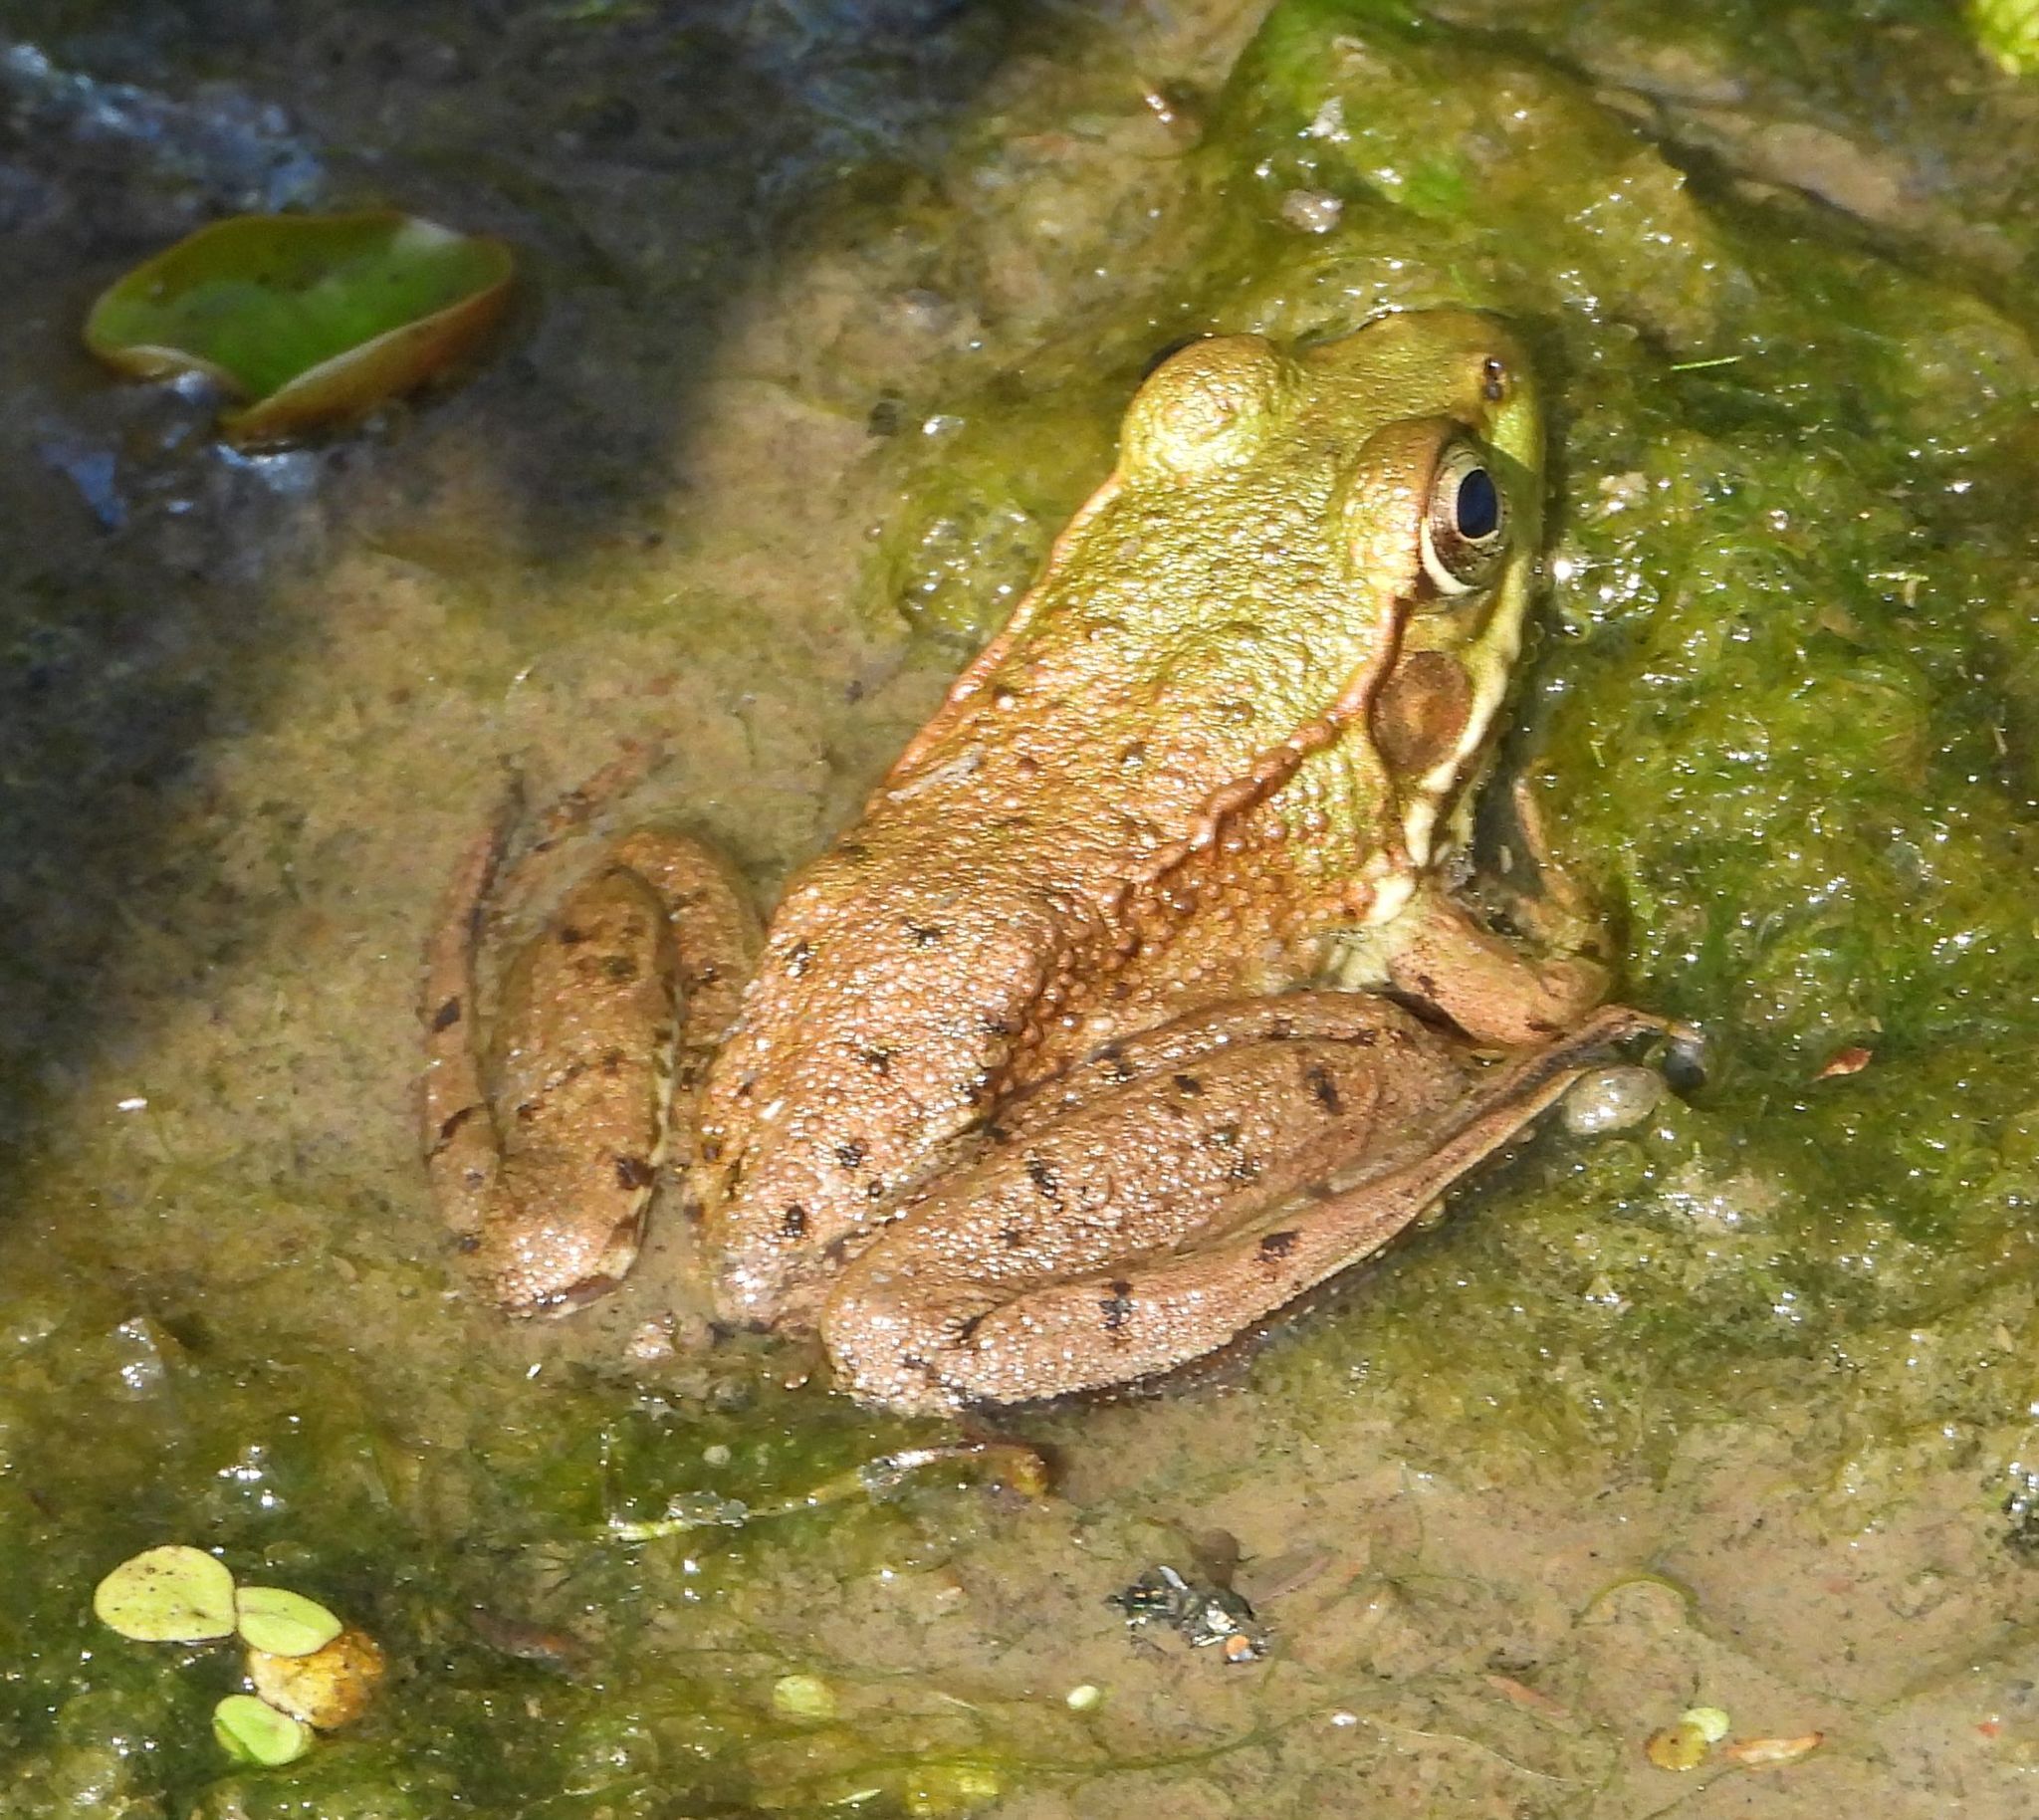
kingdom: Animalia
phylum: Chordata
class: Amphibia
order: Anura
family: Ranidae
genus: Lithobates
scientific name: Lithobates clamitans
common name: Green frog
